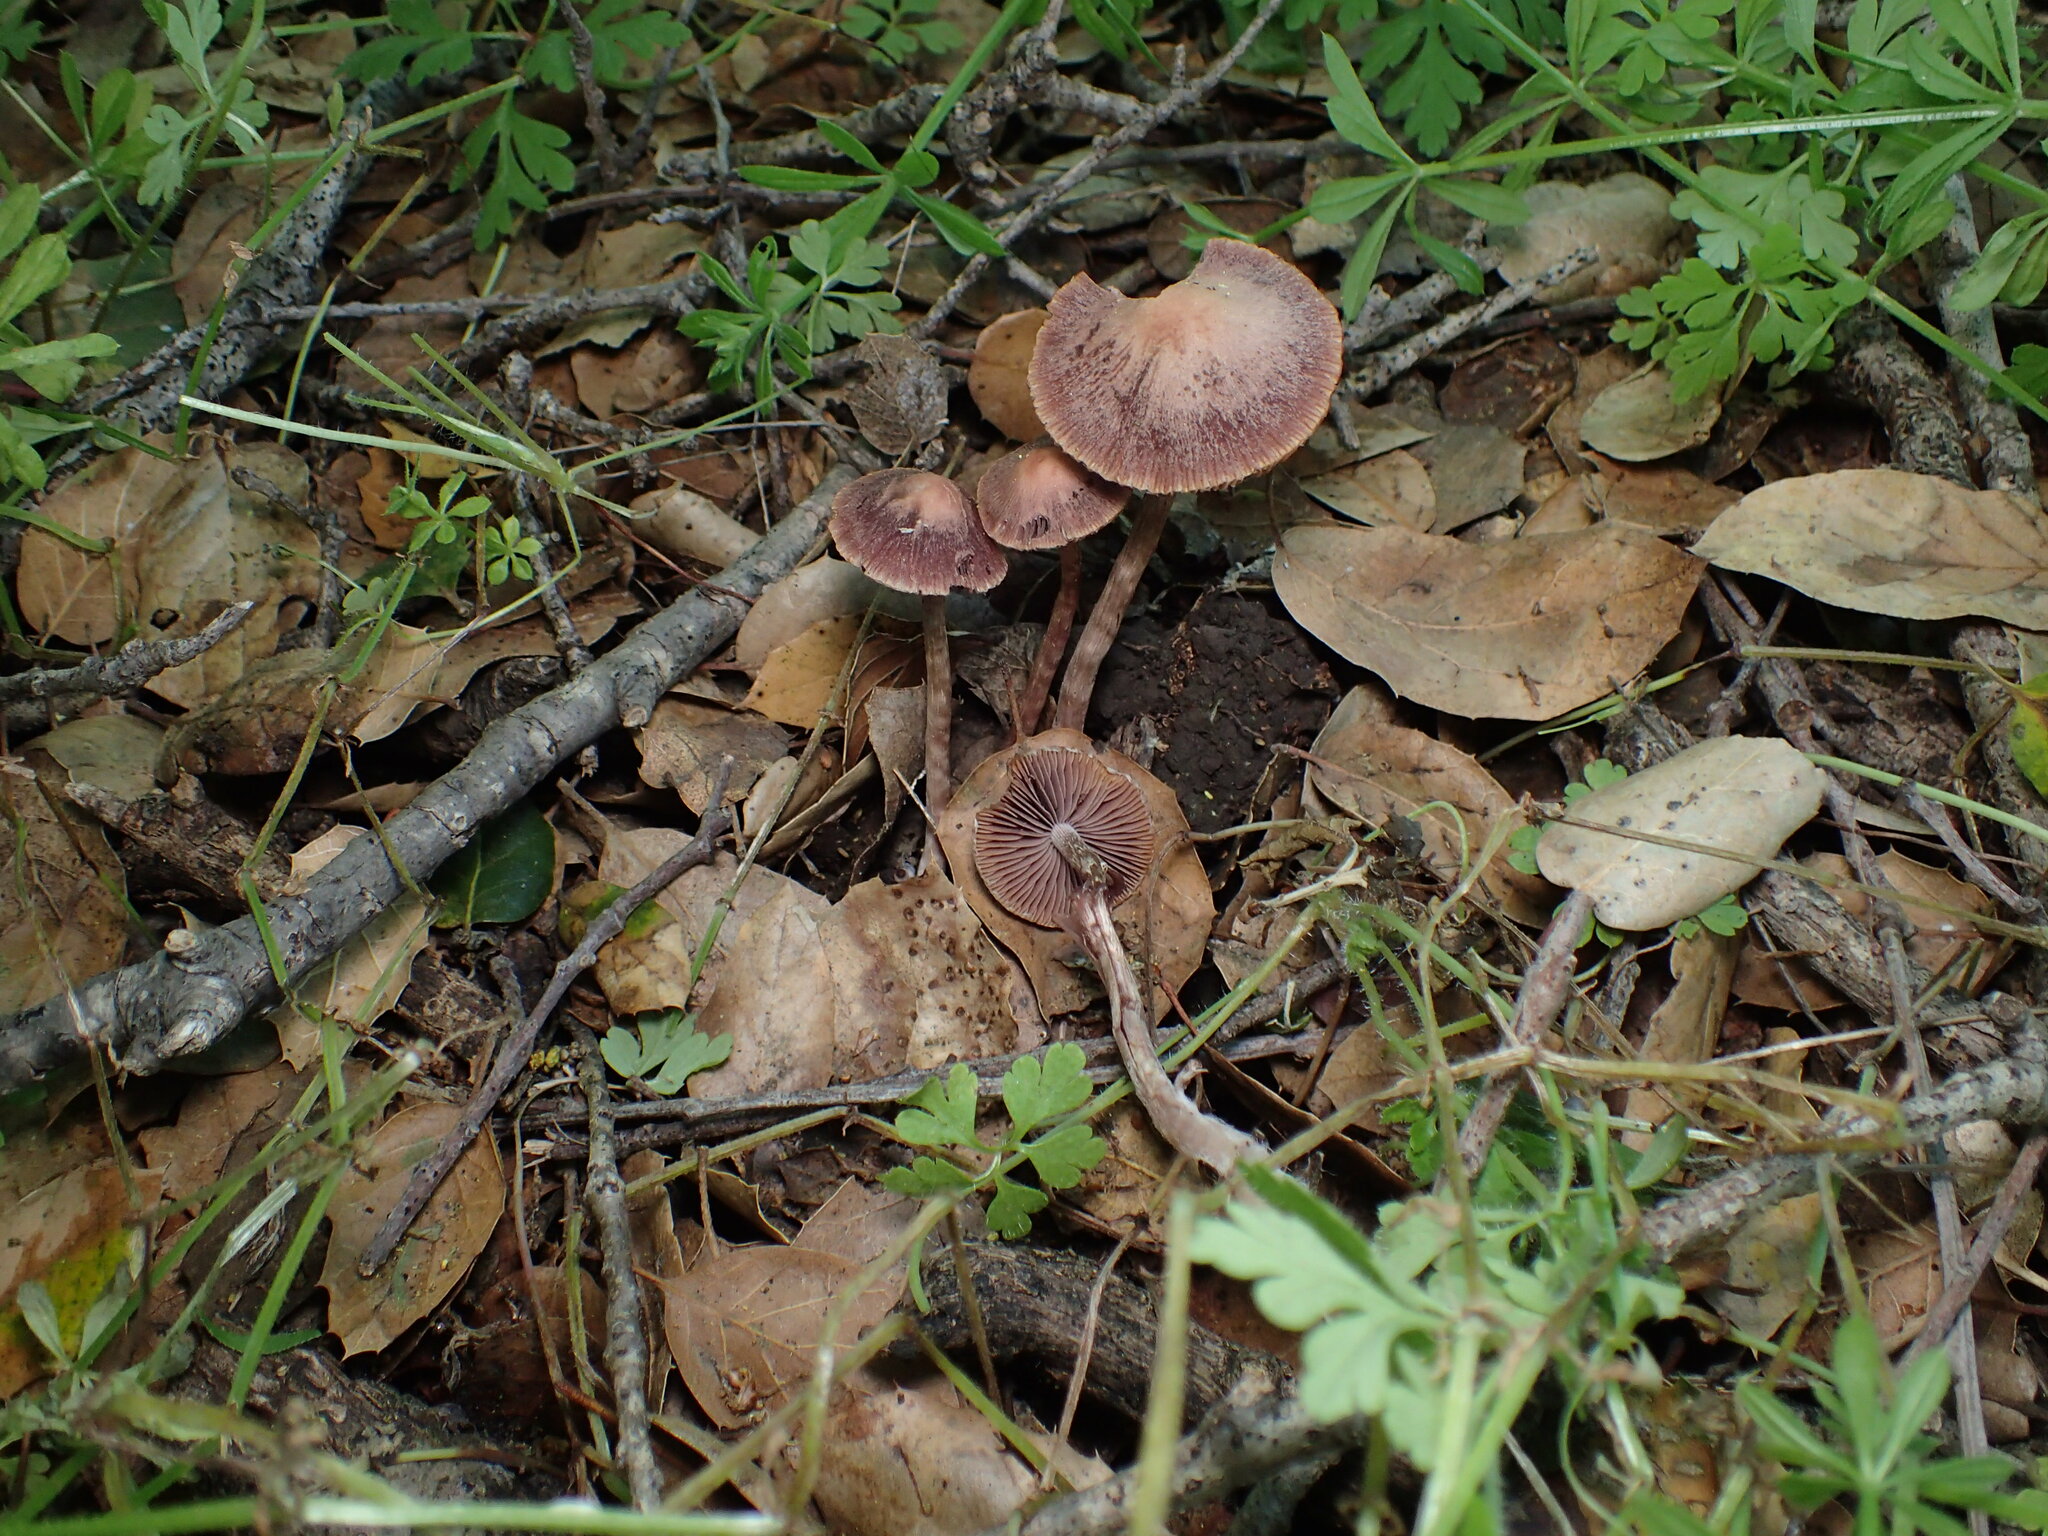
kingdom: Fungi
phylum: Basidiomycota
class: Agaricomycetes
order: Agaricales
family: Psathyrellaceae
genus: Psathyrella
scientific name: Psathyrella bipellis
